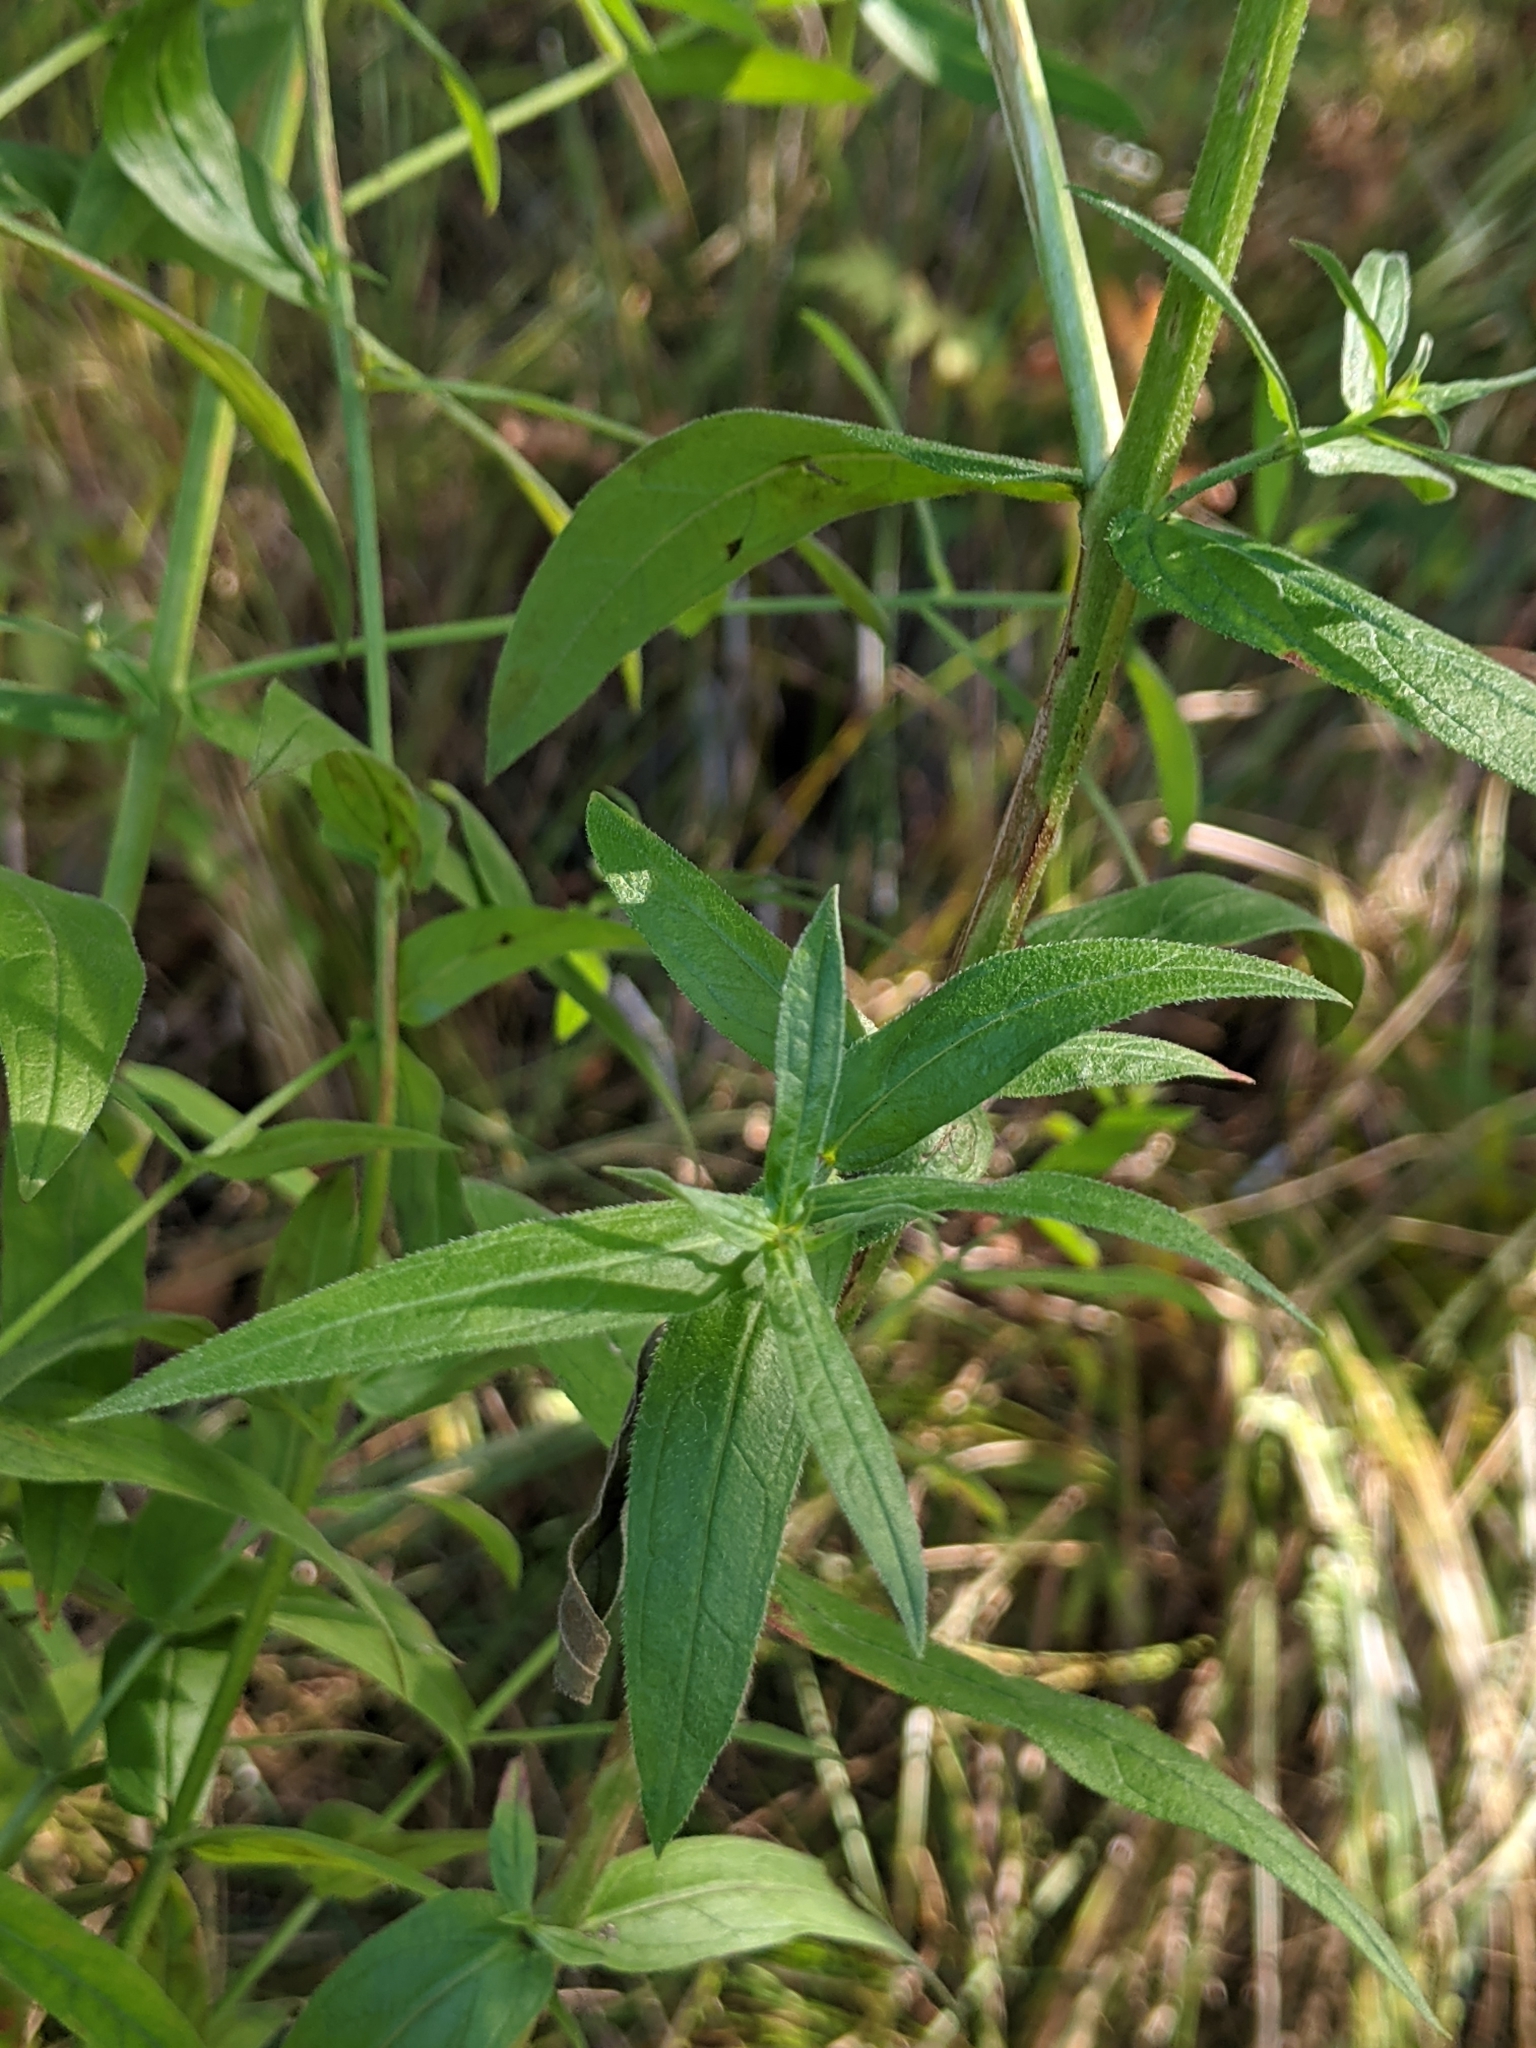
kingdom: Plantae
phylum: Tracheophyta
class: Magnoliopsida
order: Myrtales
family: Lythraceae
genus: Lythrum
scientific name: Lythrum salicaria
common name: Purple loosestrife
